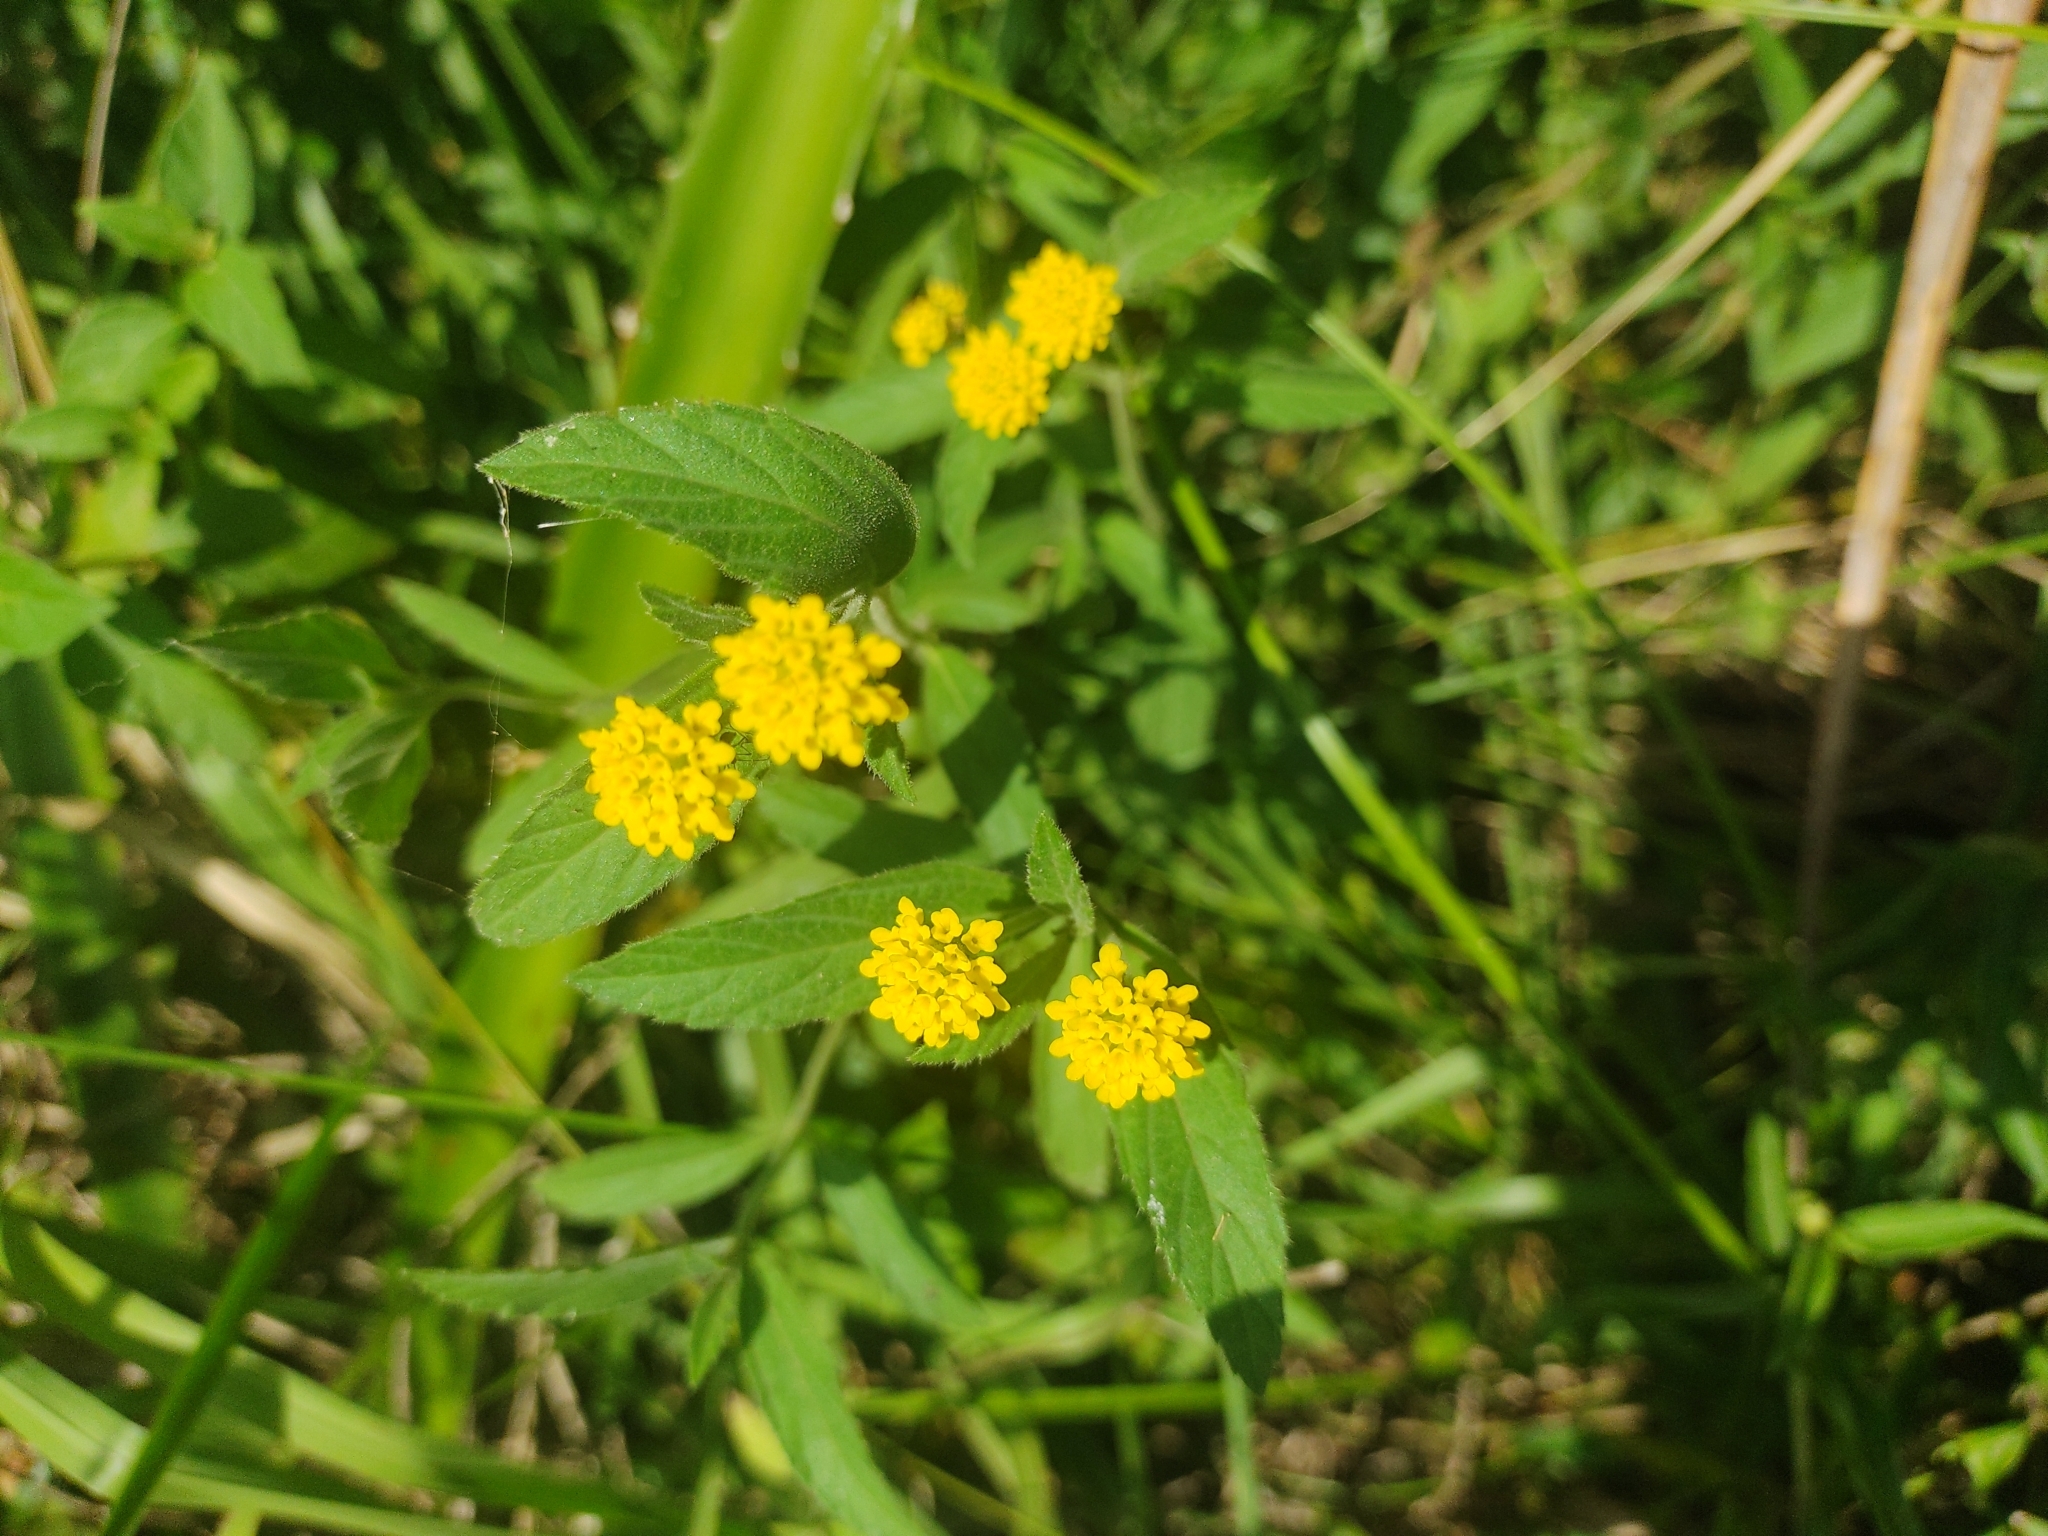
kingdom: Plantae
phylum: Tracheophyta
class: Magnoliopsida
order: Lamiales
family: Verbenaceae
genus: Lippia
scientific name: Lippia turnerifolia
